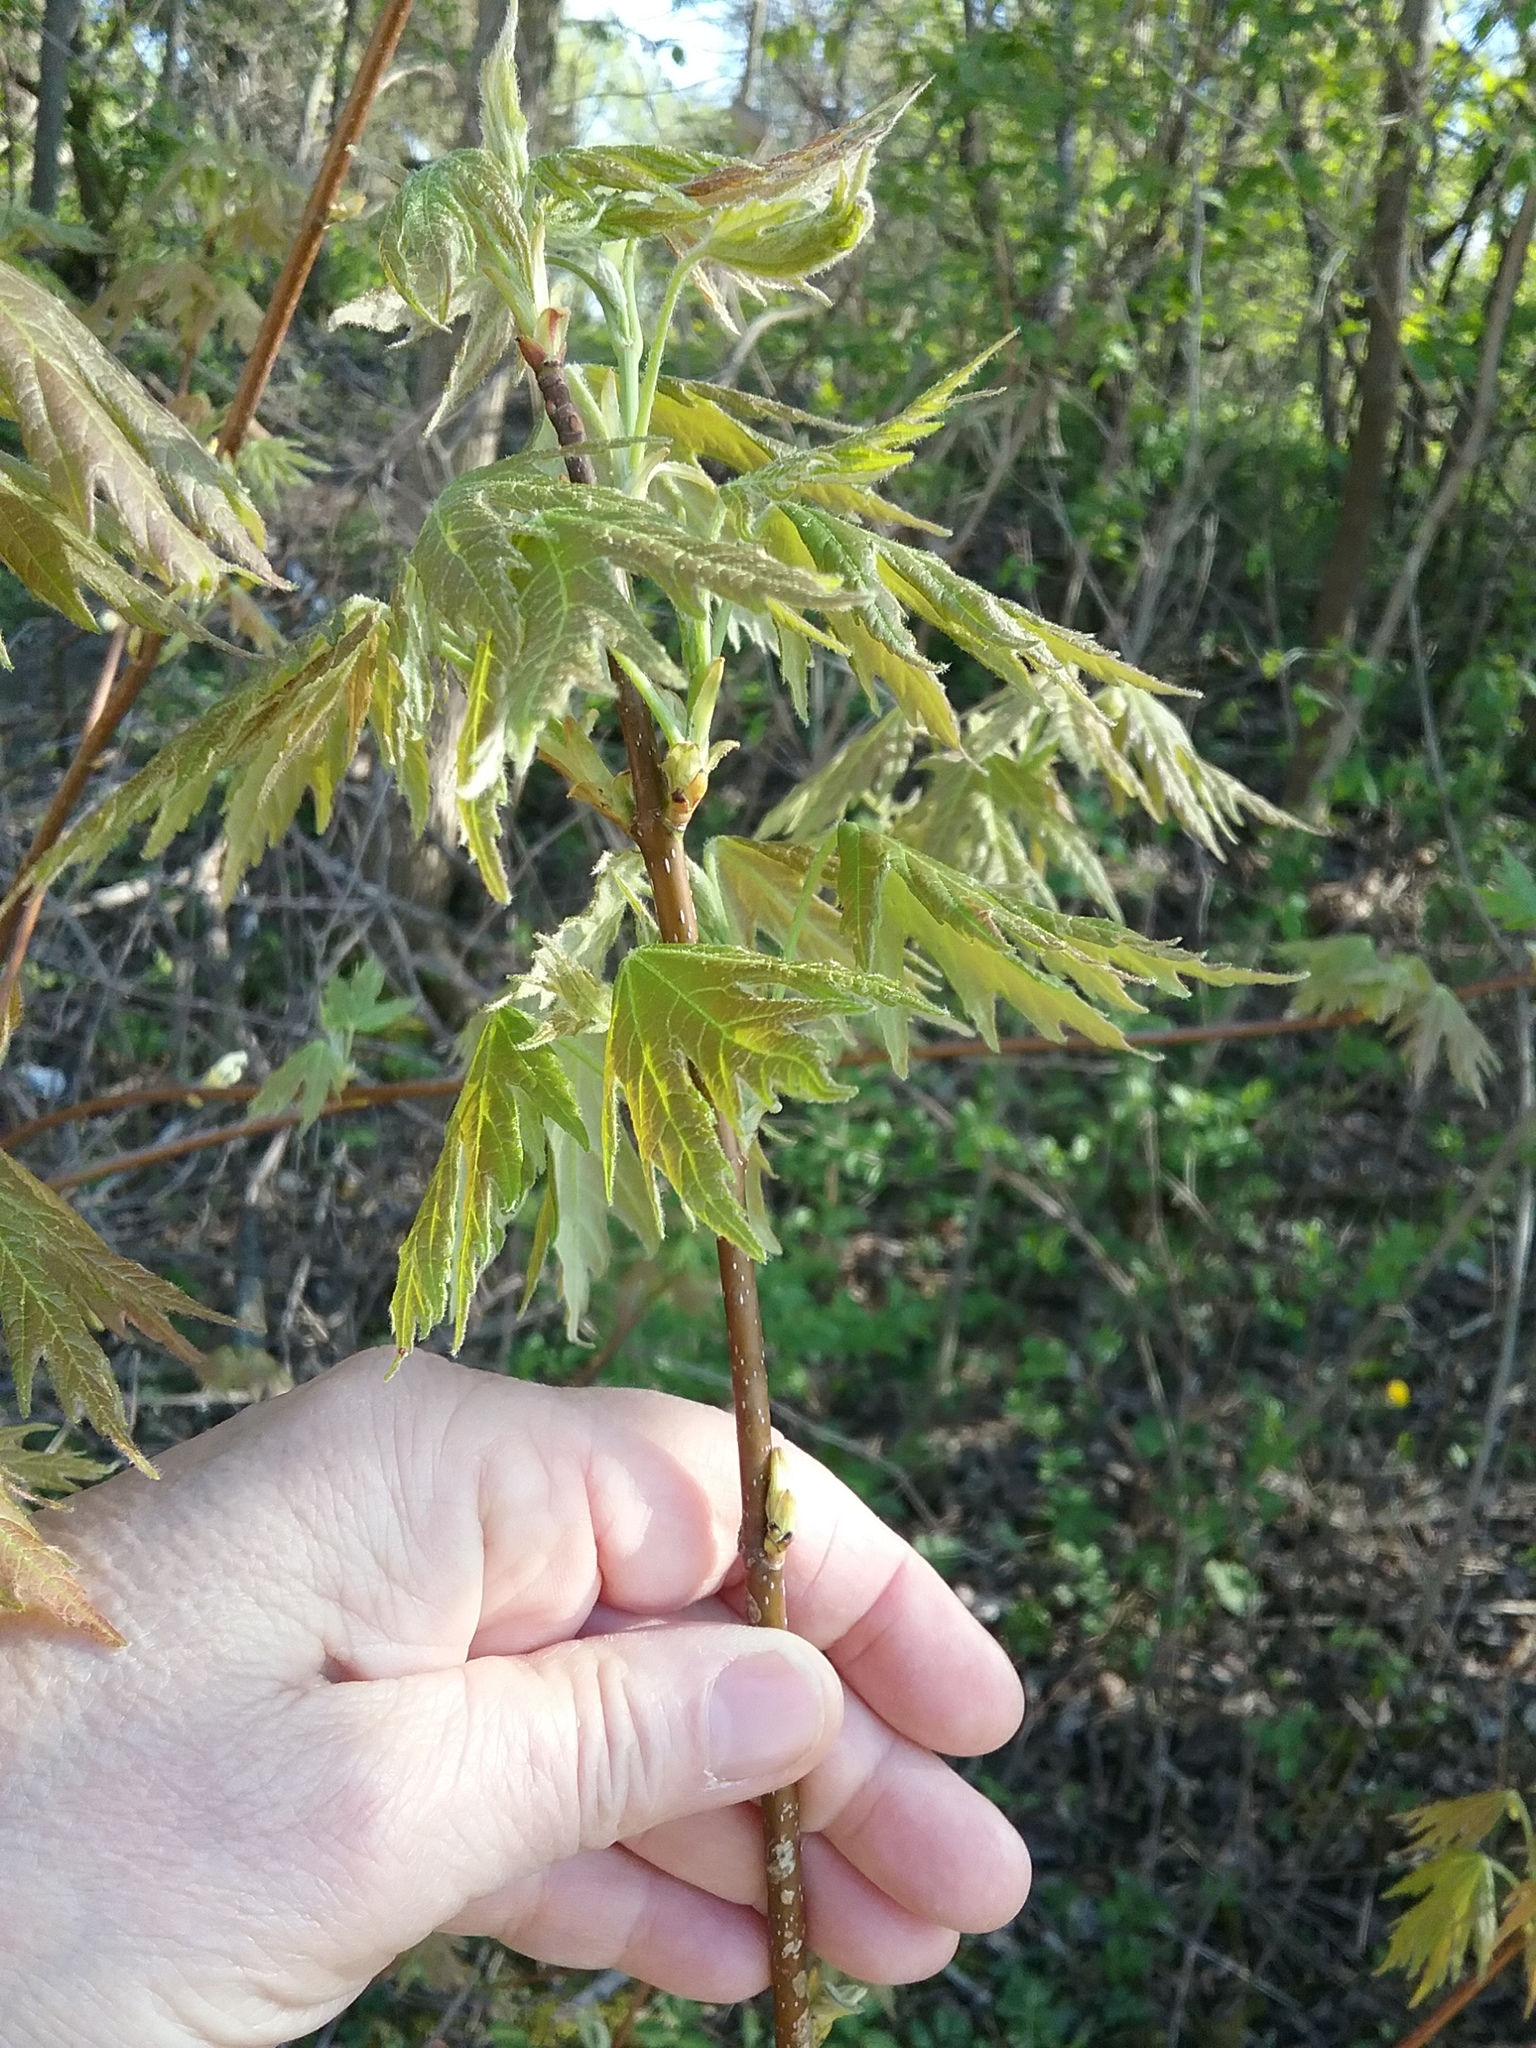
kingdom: Plantae
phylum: Tracheophyta
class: Magnoliopsida
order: Sapindales
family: Sapindaceae
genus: Acer
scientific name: Acer saccharinum
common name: Silver maple
